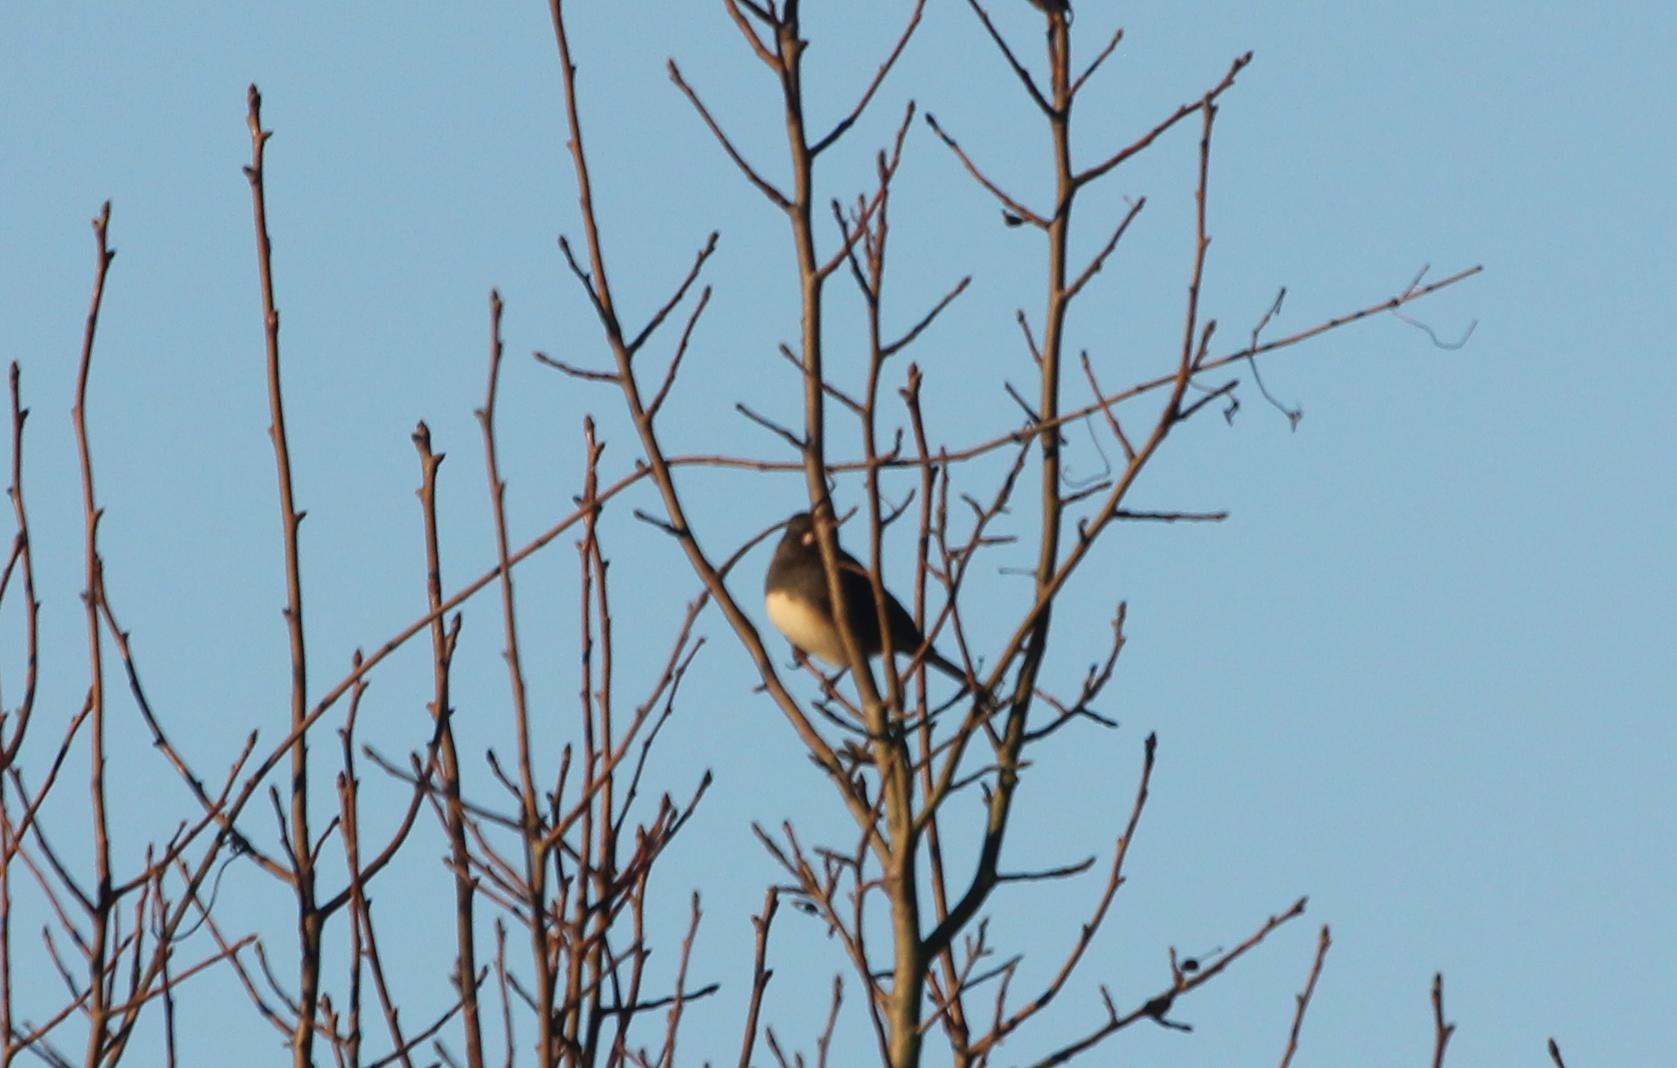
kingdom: Animalia
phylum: Chordata
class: Aves
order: Passeriformes
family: Passerellidae
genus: Junco
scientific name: Junco hyemalis
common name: Dark-eyed junco
